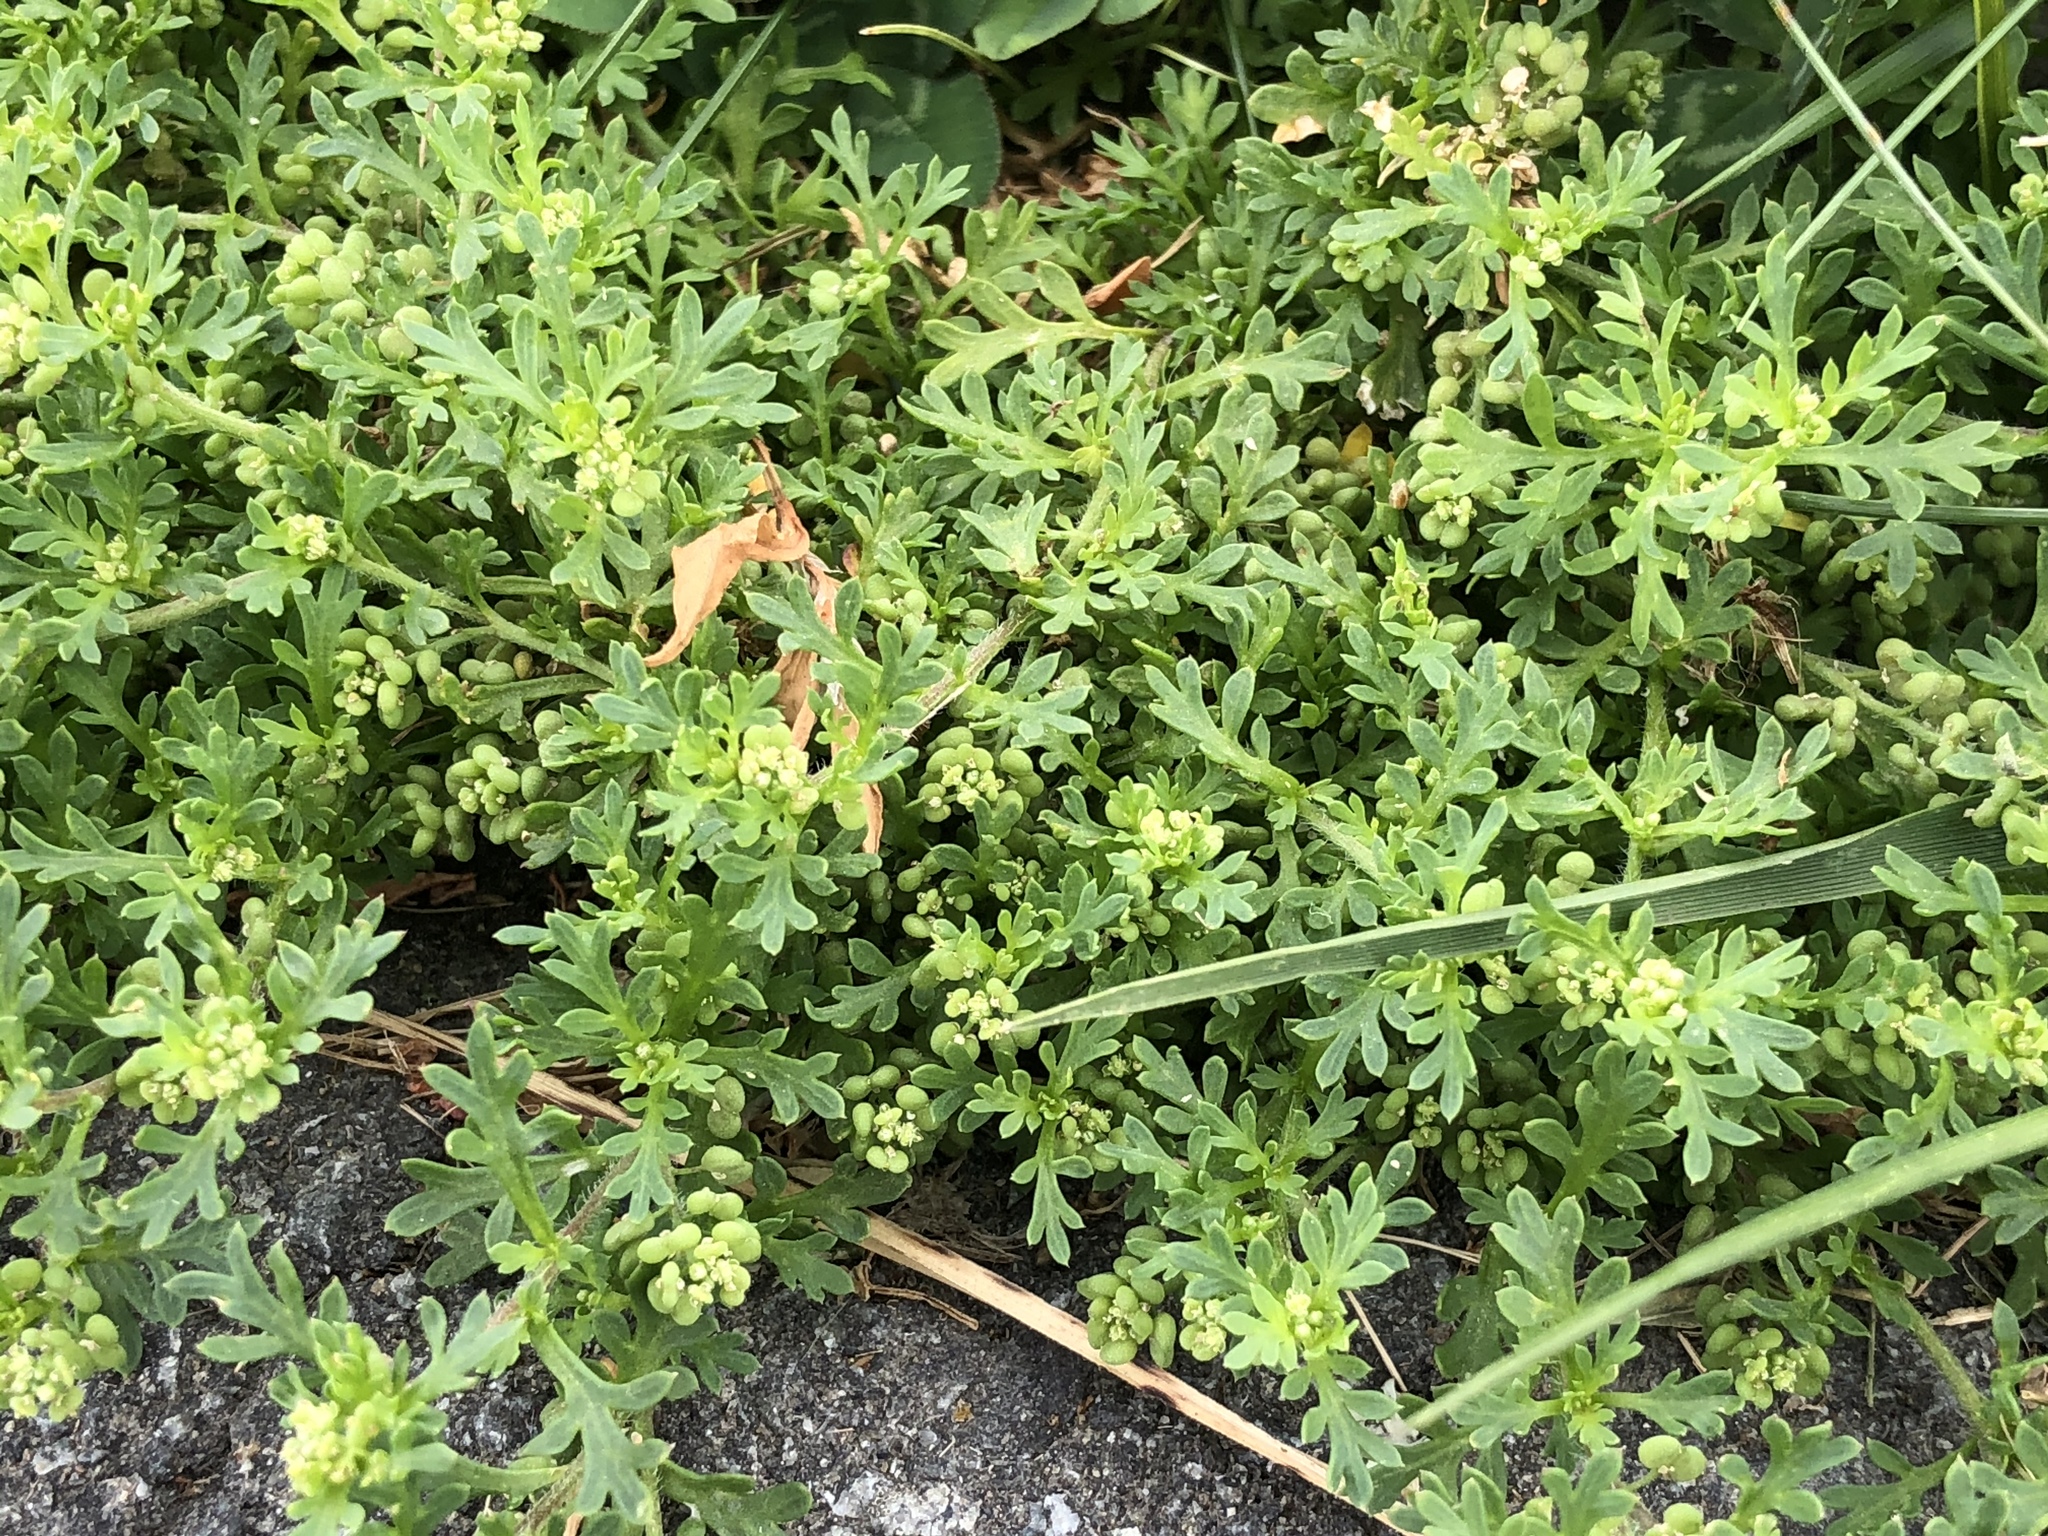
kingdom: Plantae
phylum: Tracheophyta
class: Magnoliopsida
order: Brassicales
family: Brassicaceae
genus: Lepidium
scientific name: Lepidium didymum
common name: Lesser swinecress
